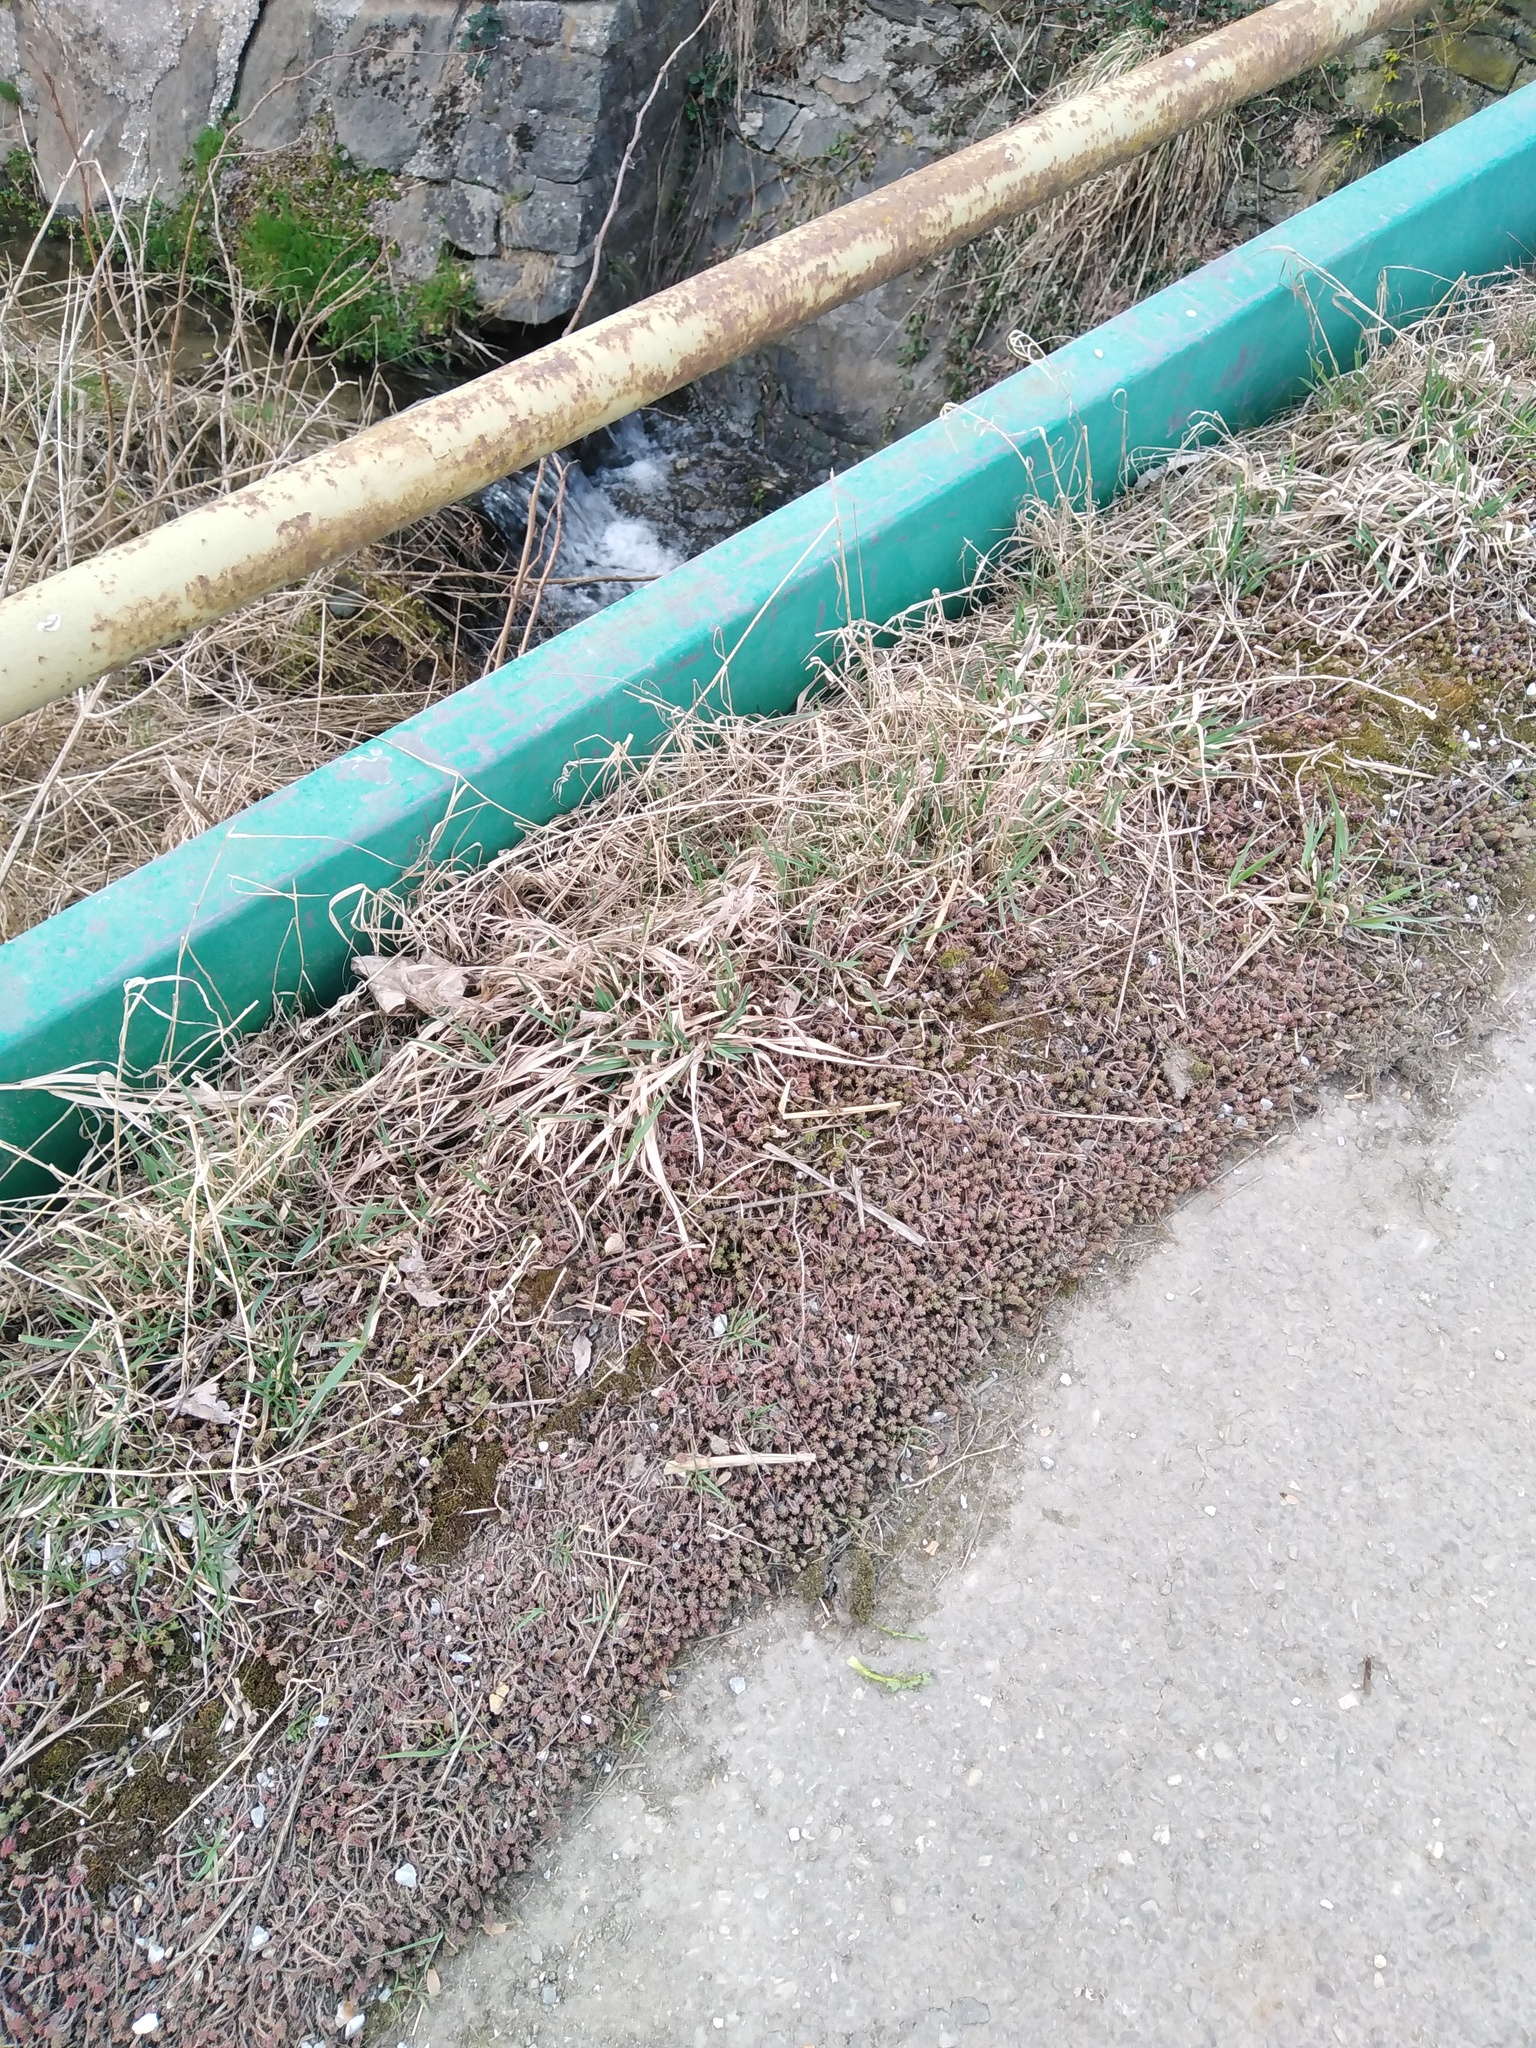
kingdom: Plantae
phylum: Tracheophyta
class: Magnoliopsida
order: Saxifragales
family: Crassulaceae
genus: Sedum
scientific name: Sedum sexangulare
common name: Tasteless stonecrop
